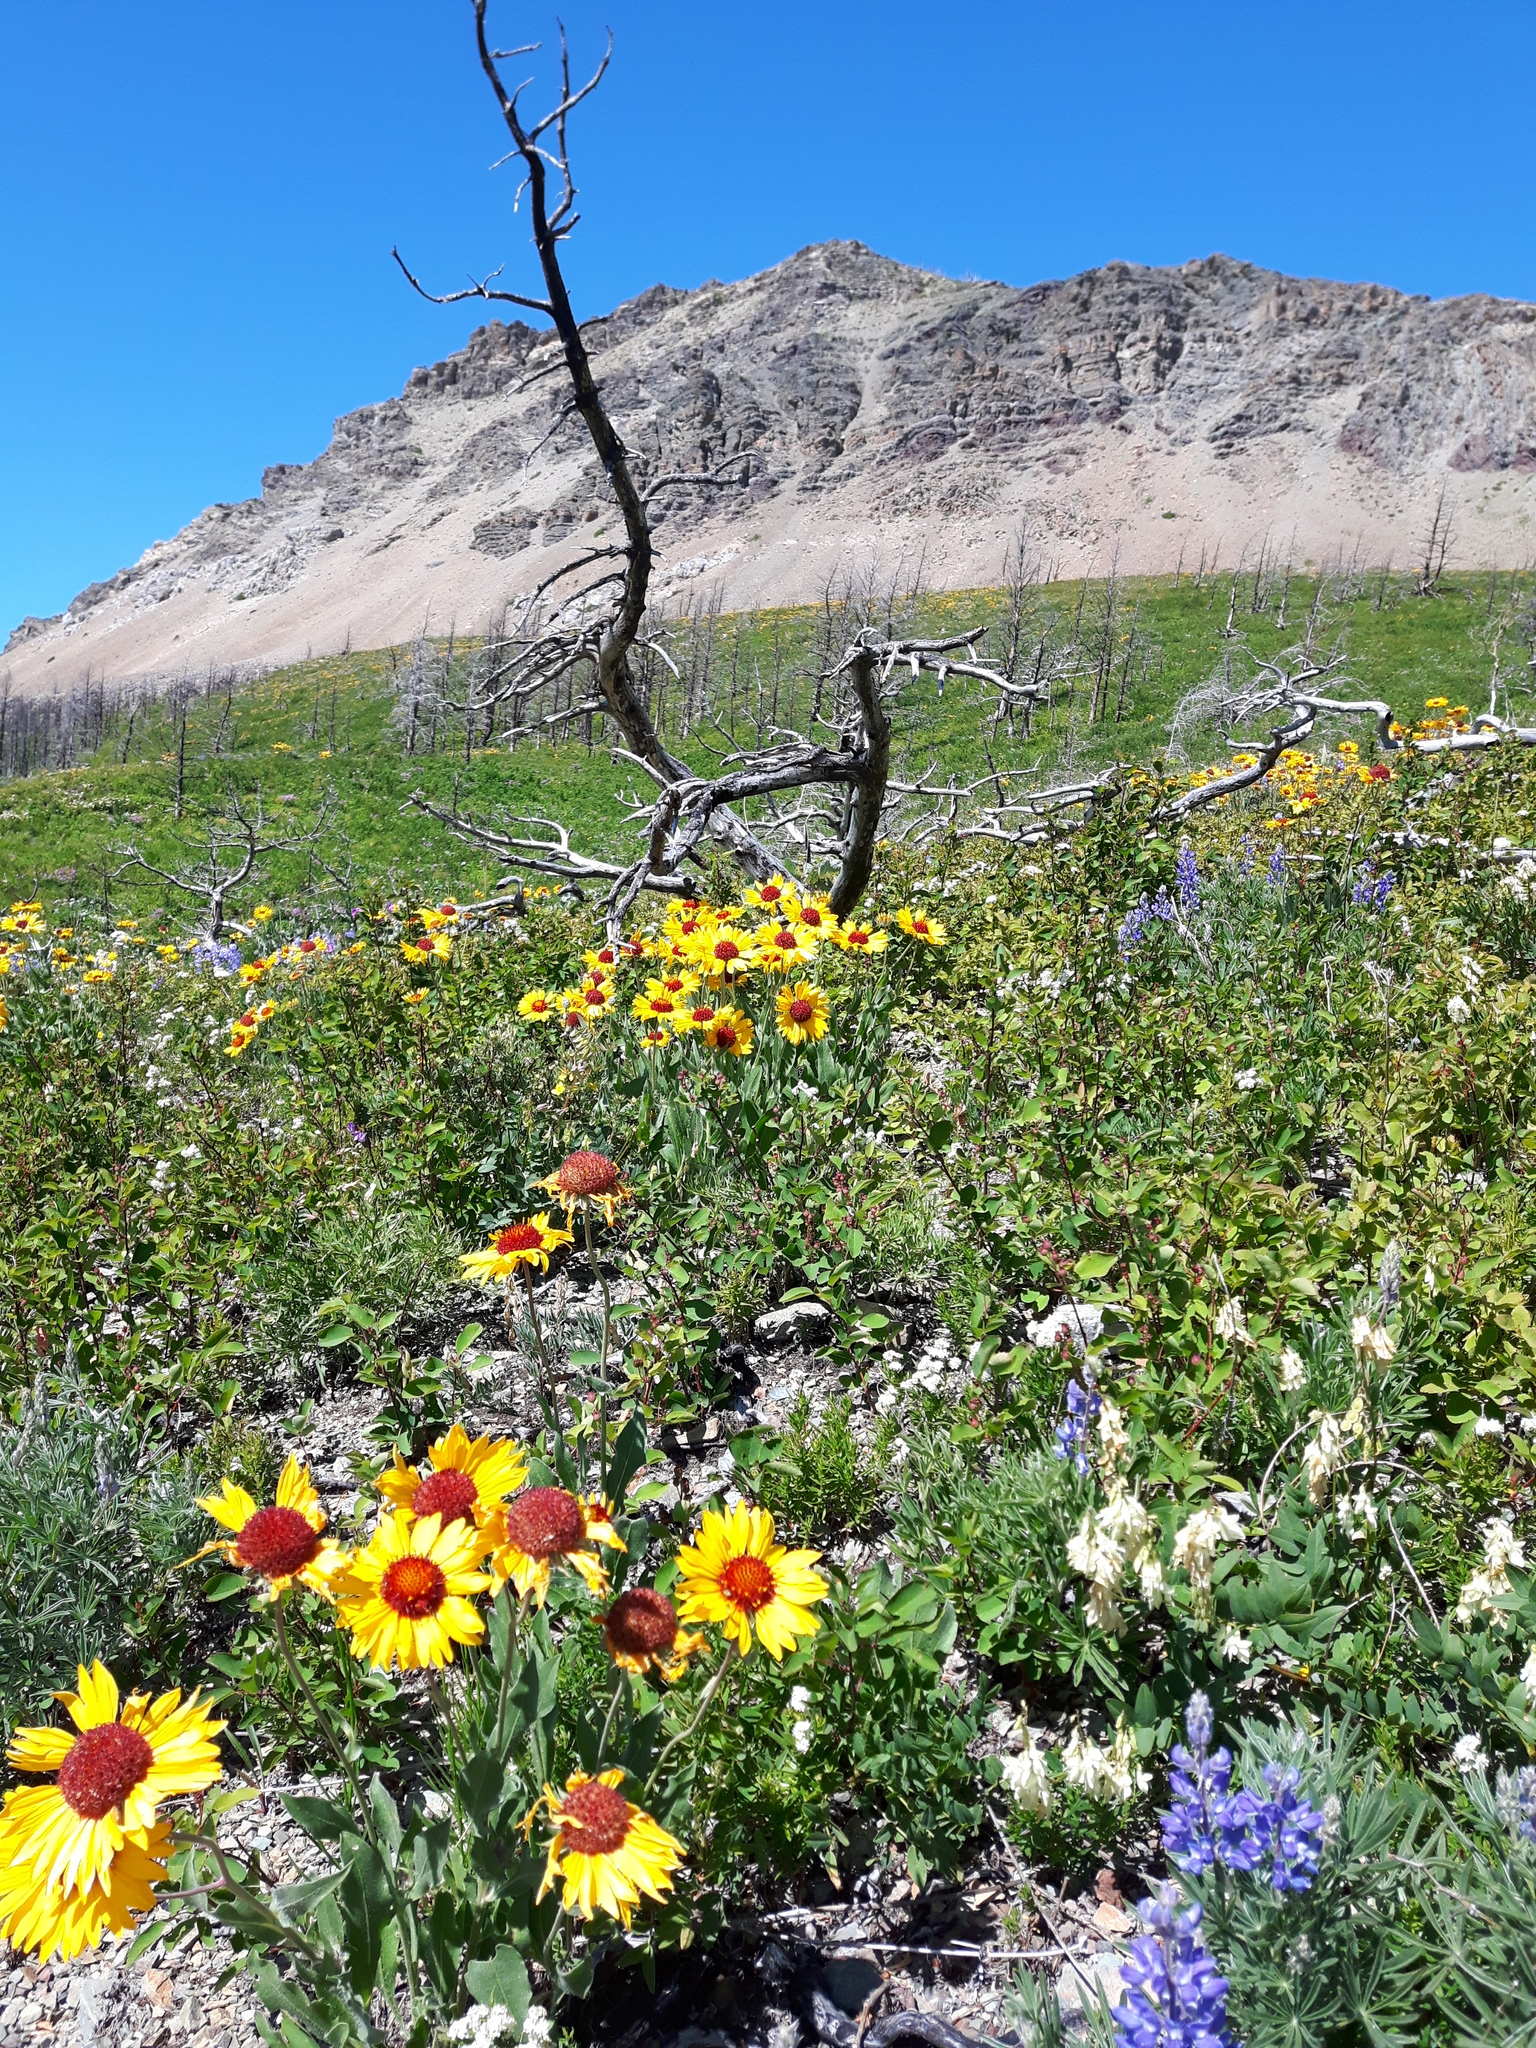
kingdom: Plantae
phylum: Tracheophyta
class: Magnoliopsida
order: Asterales
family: Asteraceae
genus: Gaillardia
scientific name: Gaillardia aristata
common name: Blanket-flower
